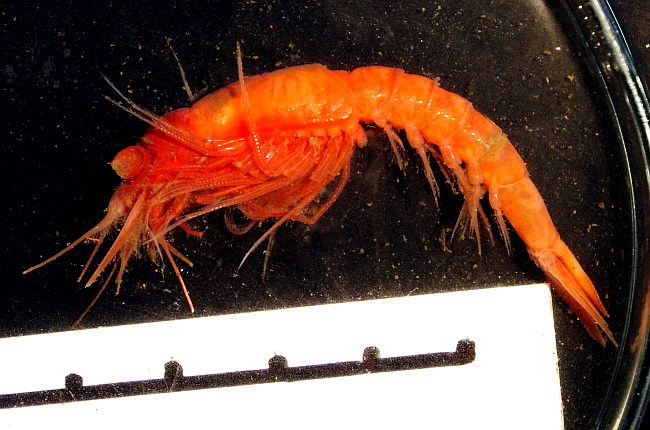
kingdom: Animalia
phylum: Arthropoda
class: Malacostraca
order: Mysida
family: Mysidae
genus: Boreomysis
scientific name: Boreomysis inermis
